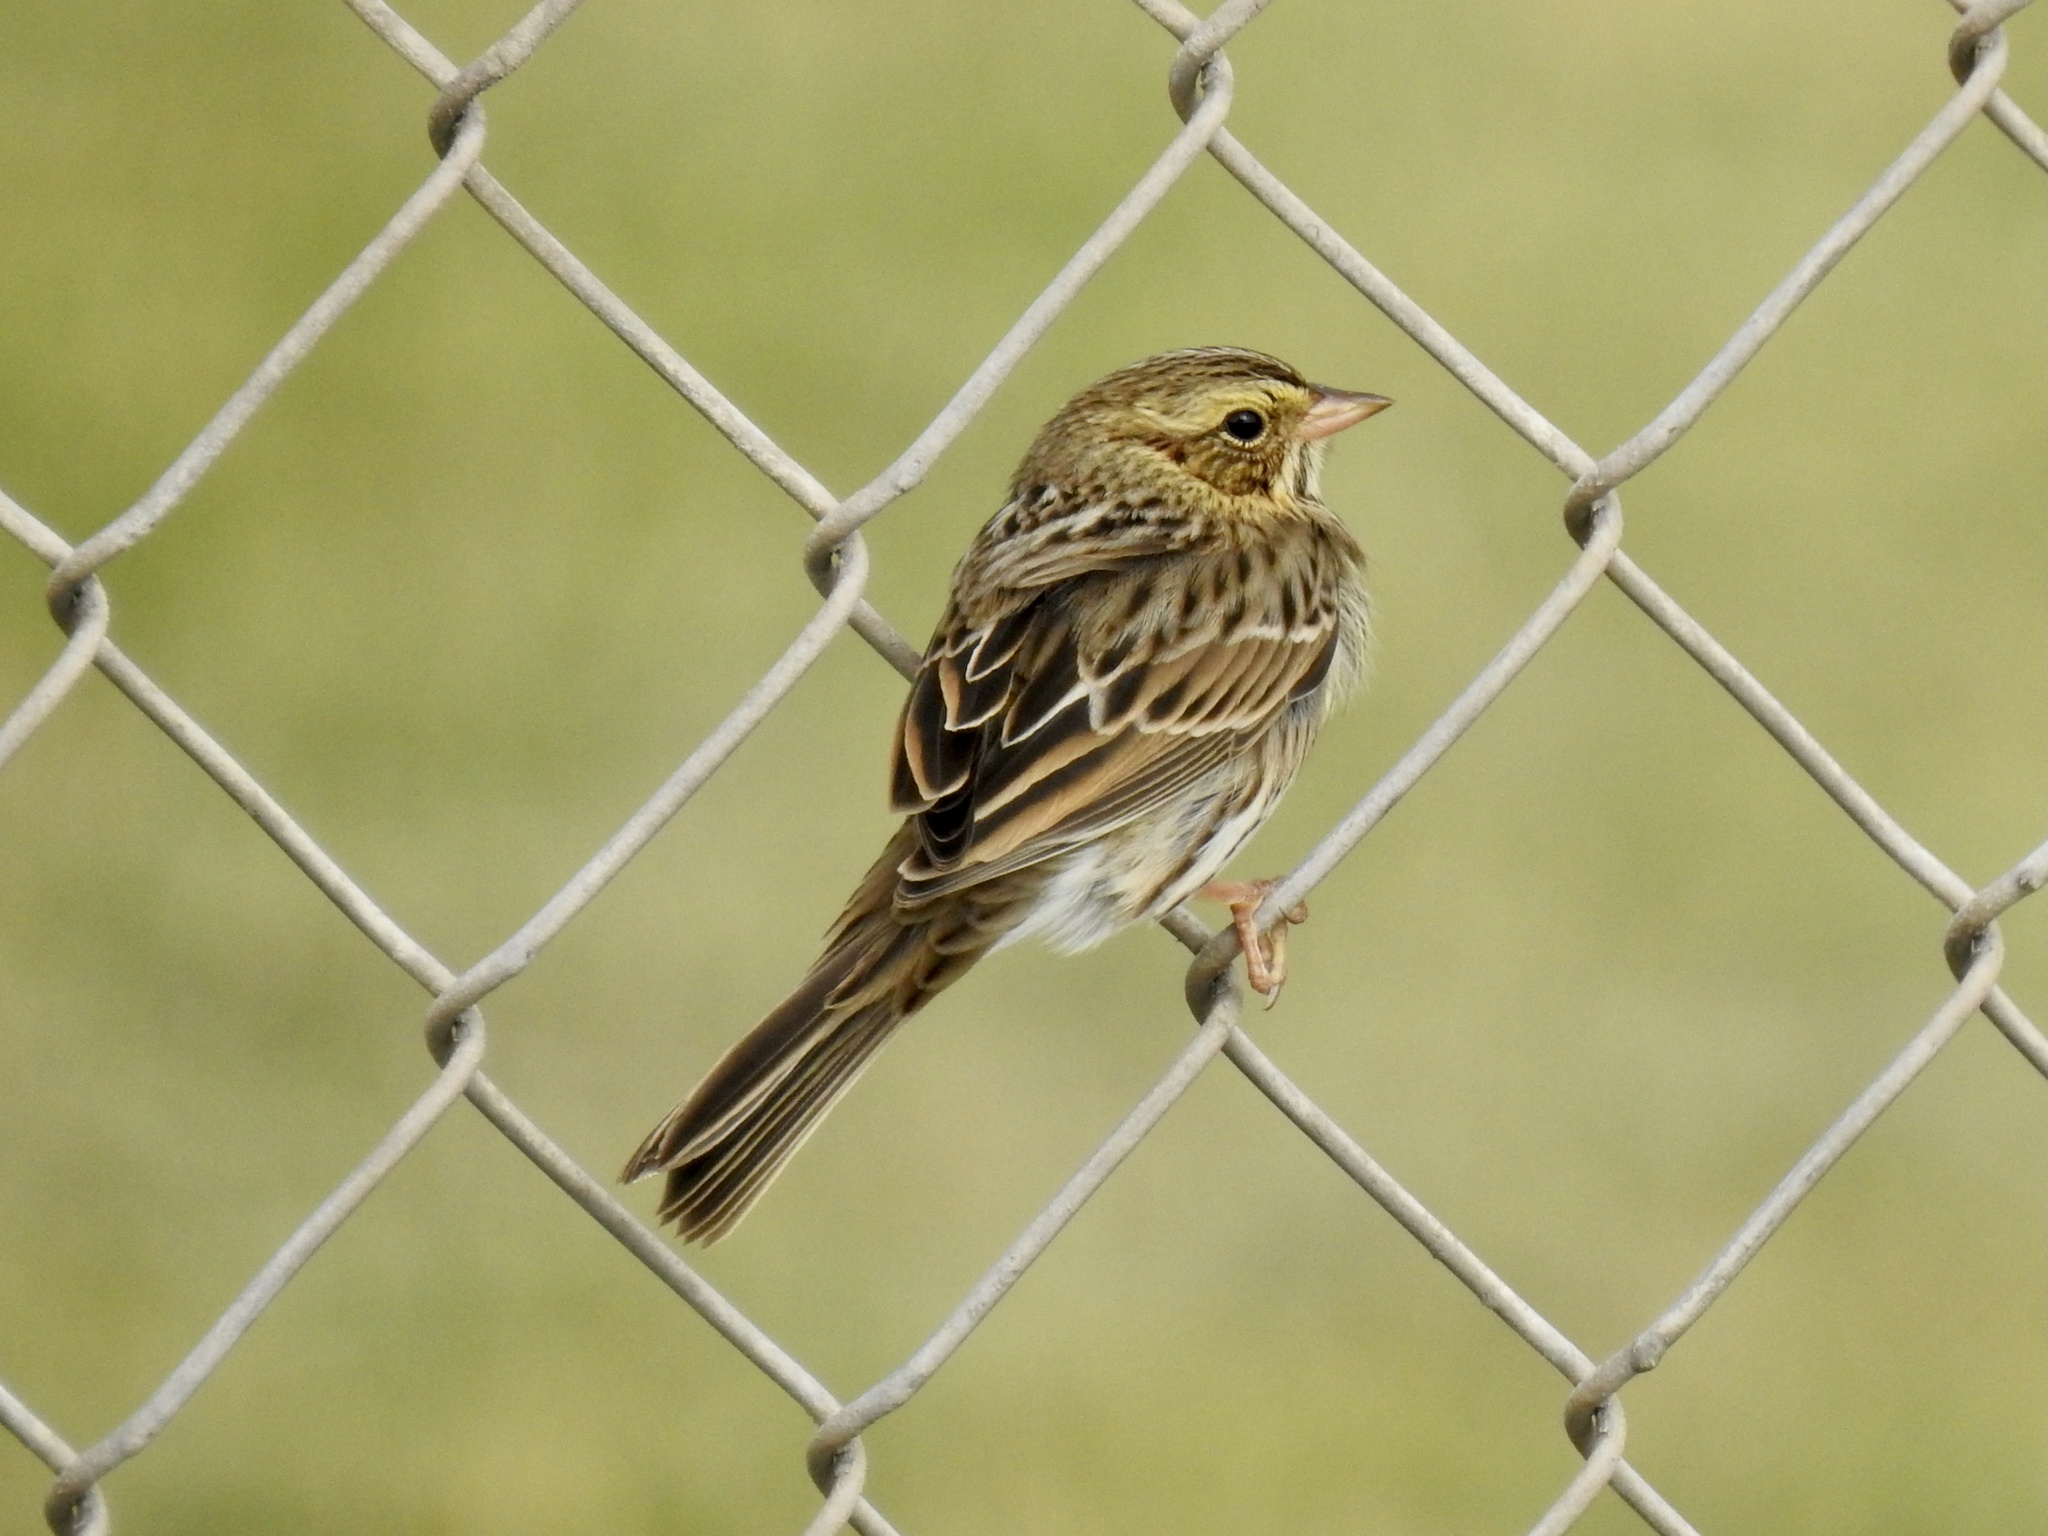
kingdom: Animalia
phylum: Chordata
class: Aves
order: Passeriformes
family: Passerellidae
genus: Passerculus
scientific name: Passerculus sandwichensis
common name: Savannah sparrow
